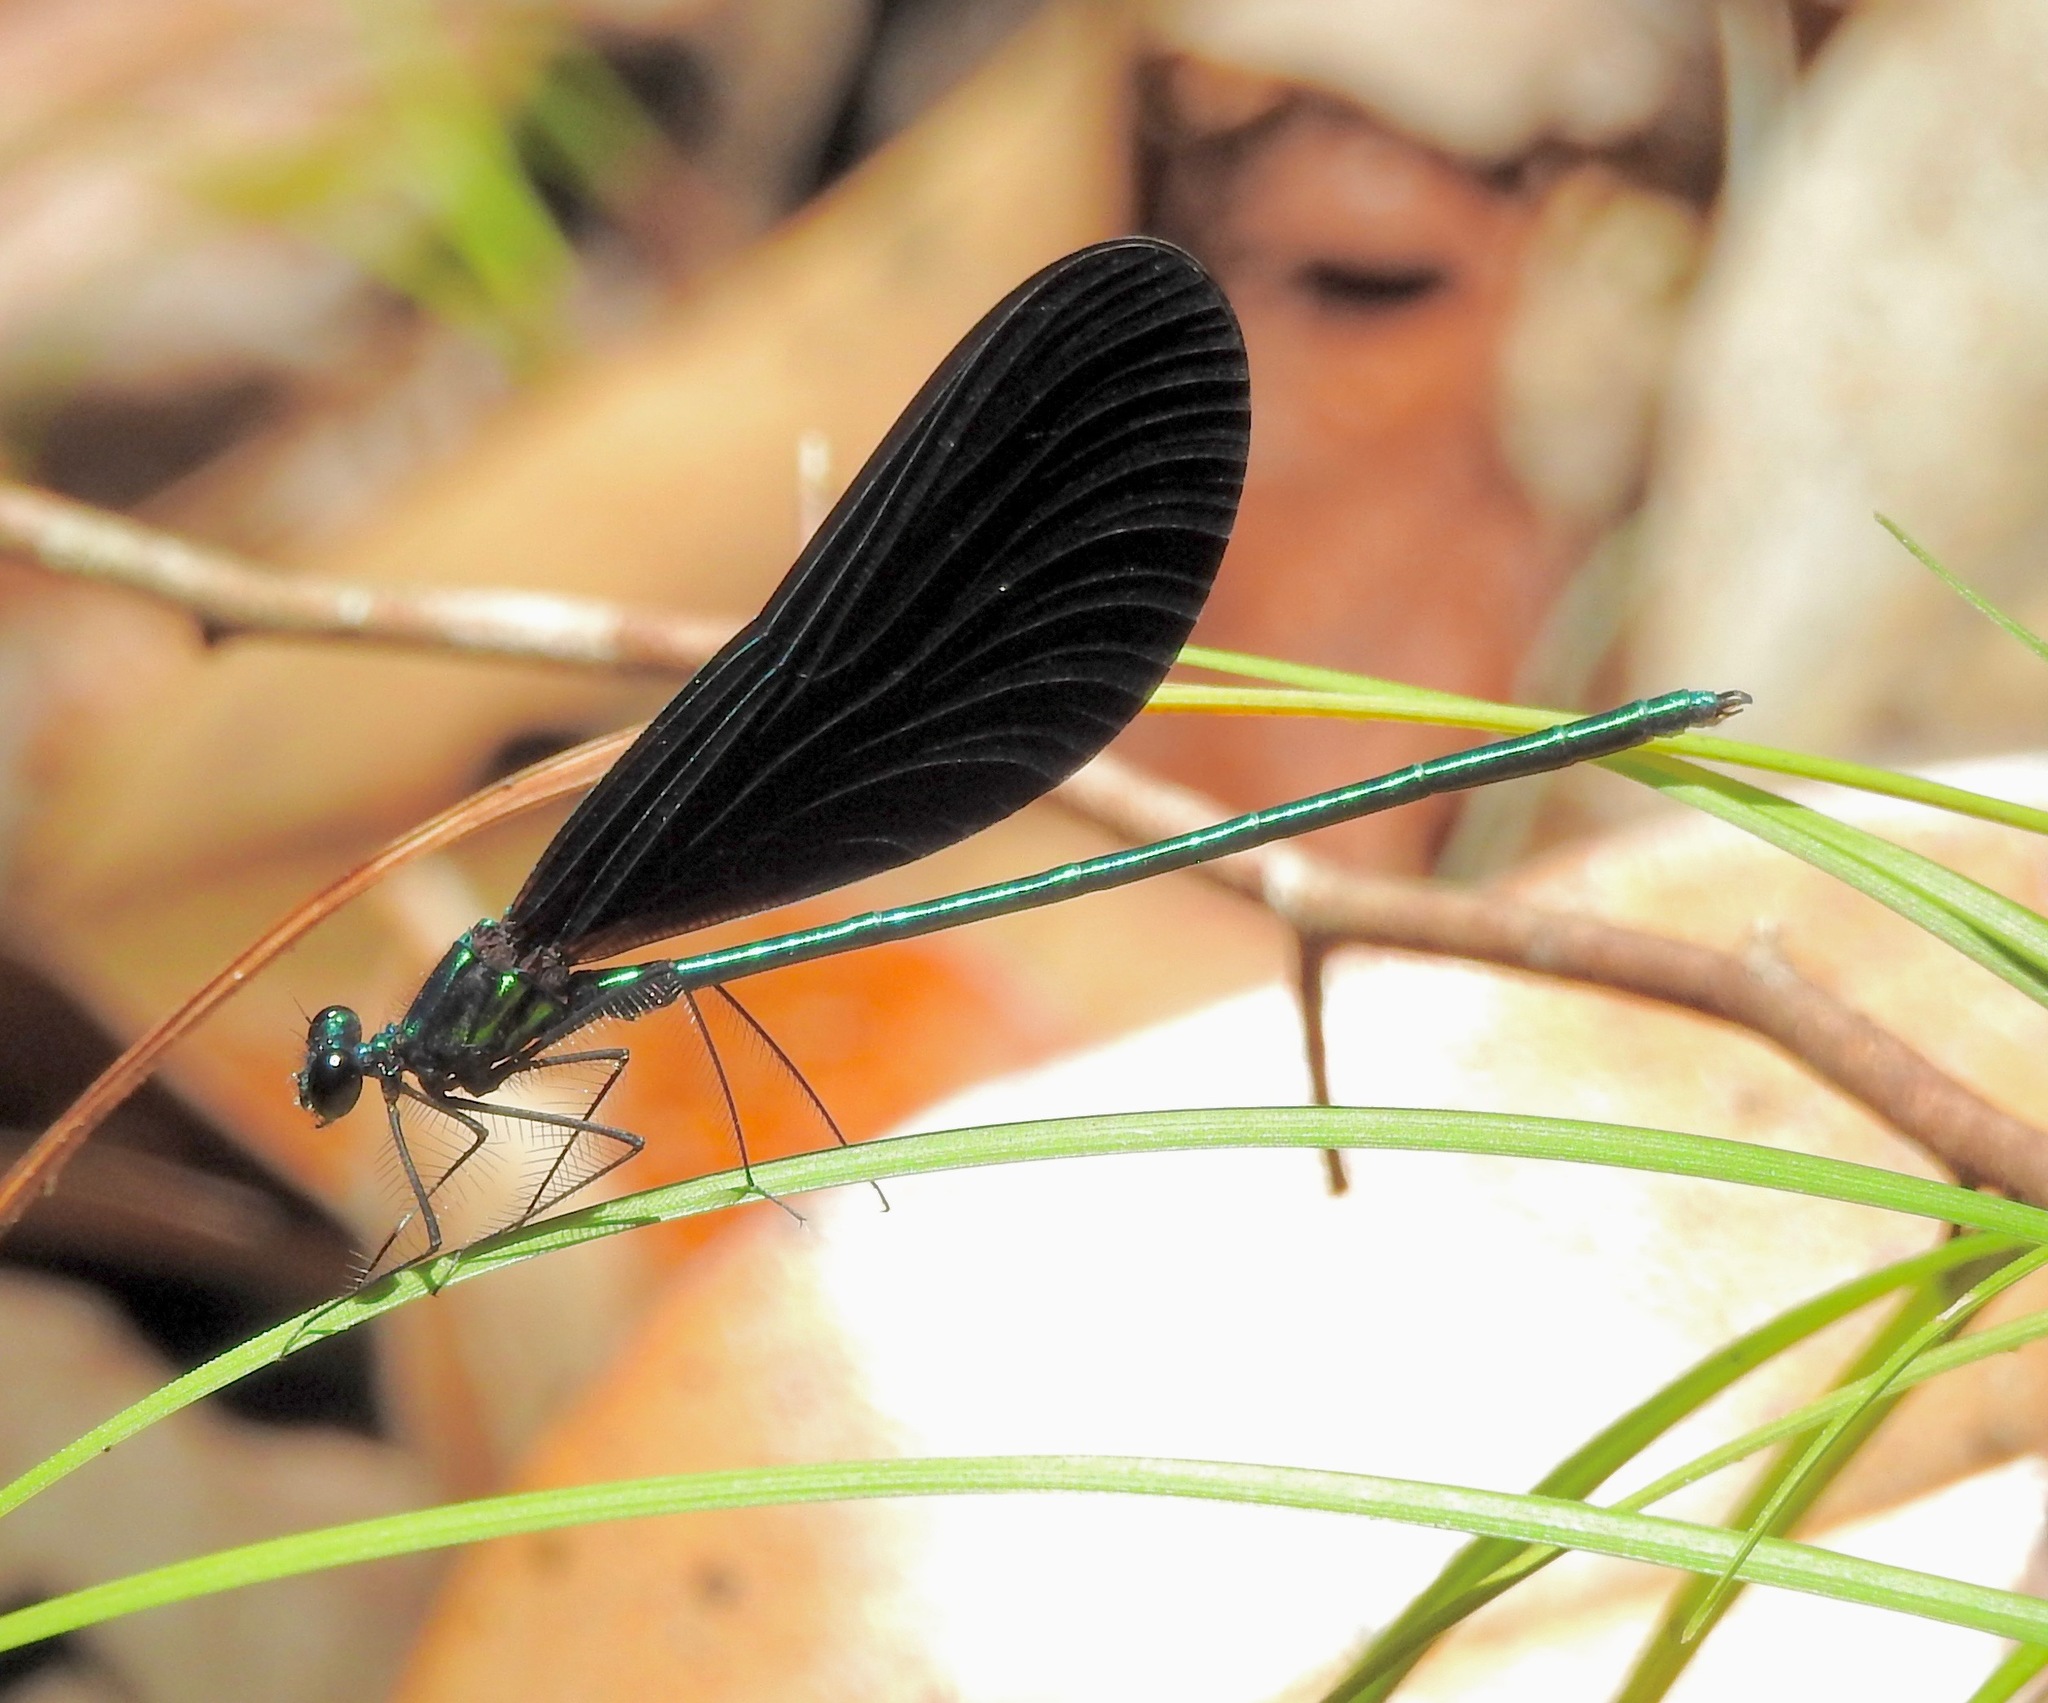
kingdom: Animalia
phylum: Arthropoda
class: Insecta
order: Odonata
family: Calopterygidae
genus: Calopteryx
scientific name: Calopteryx maculata
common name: Ebony jewelwing
